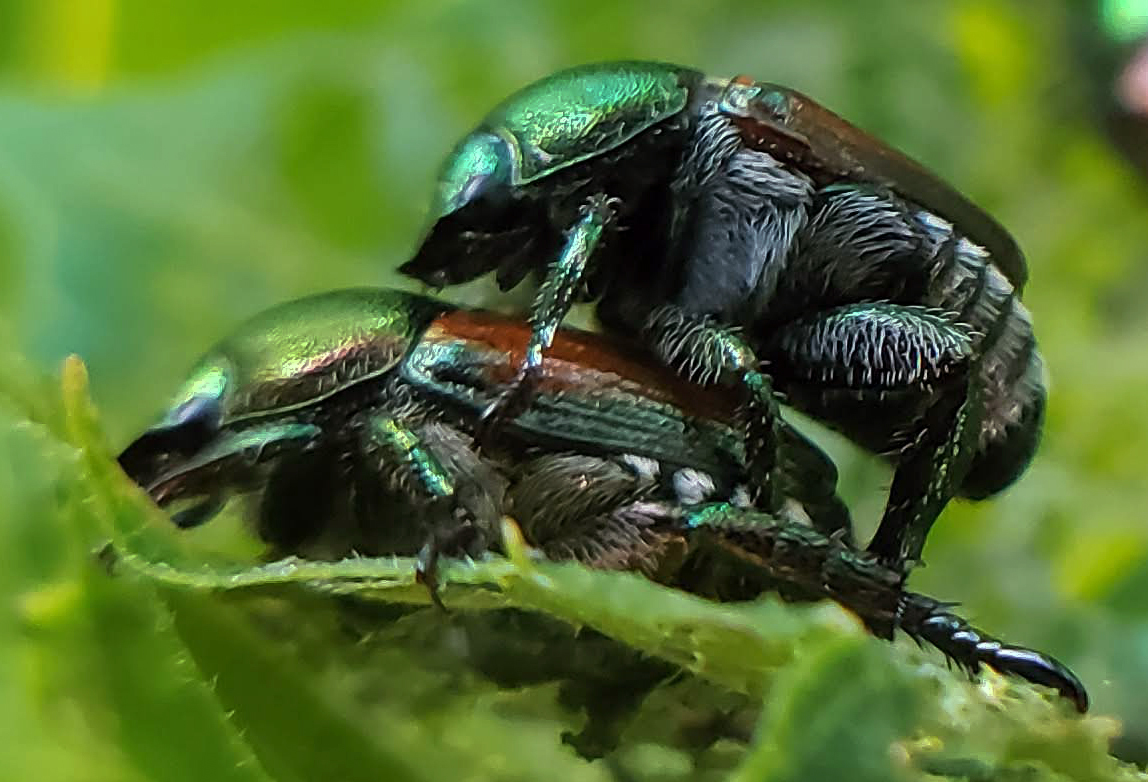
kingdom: Animalia
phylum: Arthropoda
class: Insecta
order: Coleoptera
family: Scarabaeidae
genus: Popillia
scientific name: Popillia japonica
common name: Japanese beetle
